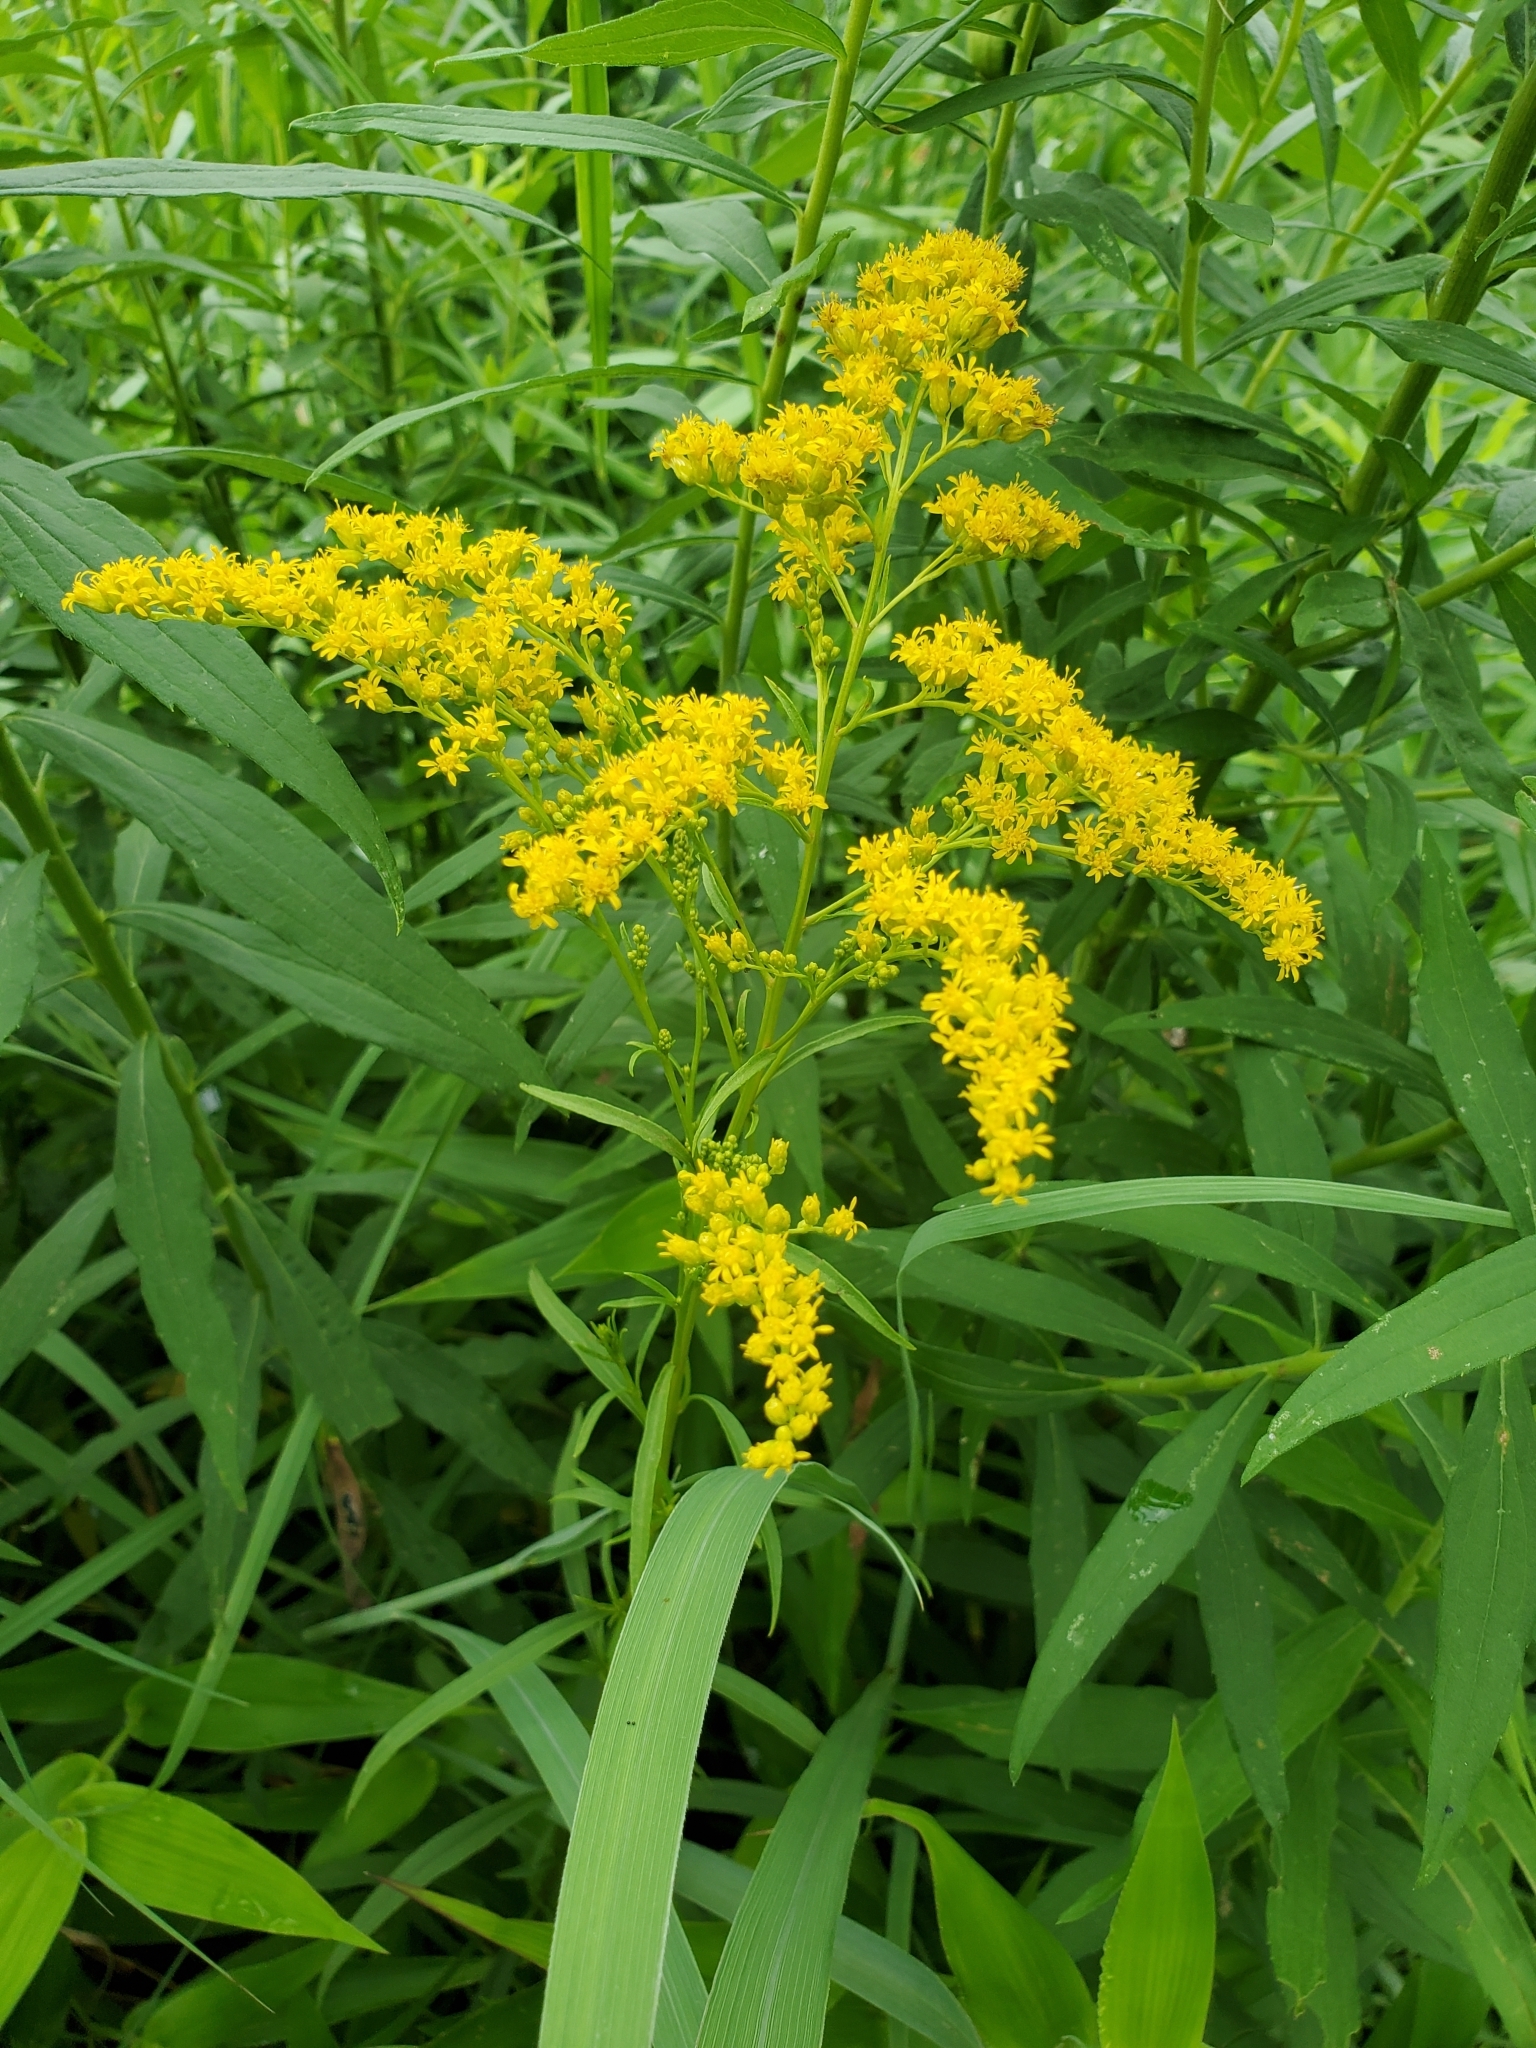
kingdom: Plantae
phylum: Tracheophyta
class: Magnoliopsida
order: Asterales
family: Asteraceae
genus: Solidago
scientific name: Solidago juncea
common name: Early goldenrod
